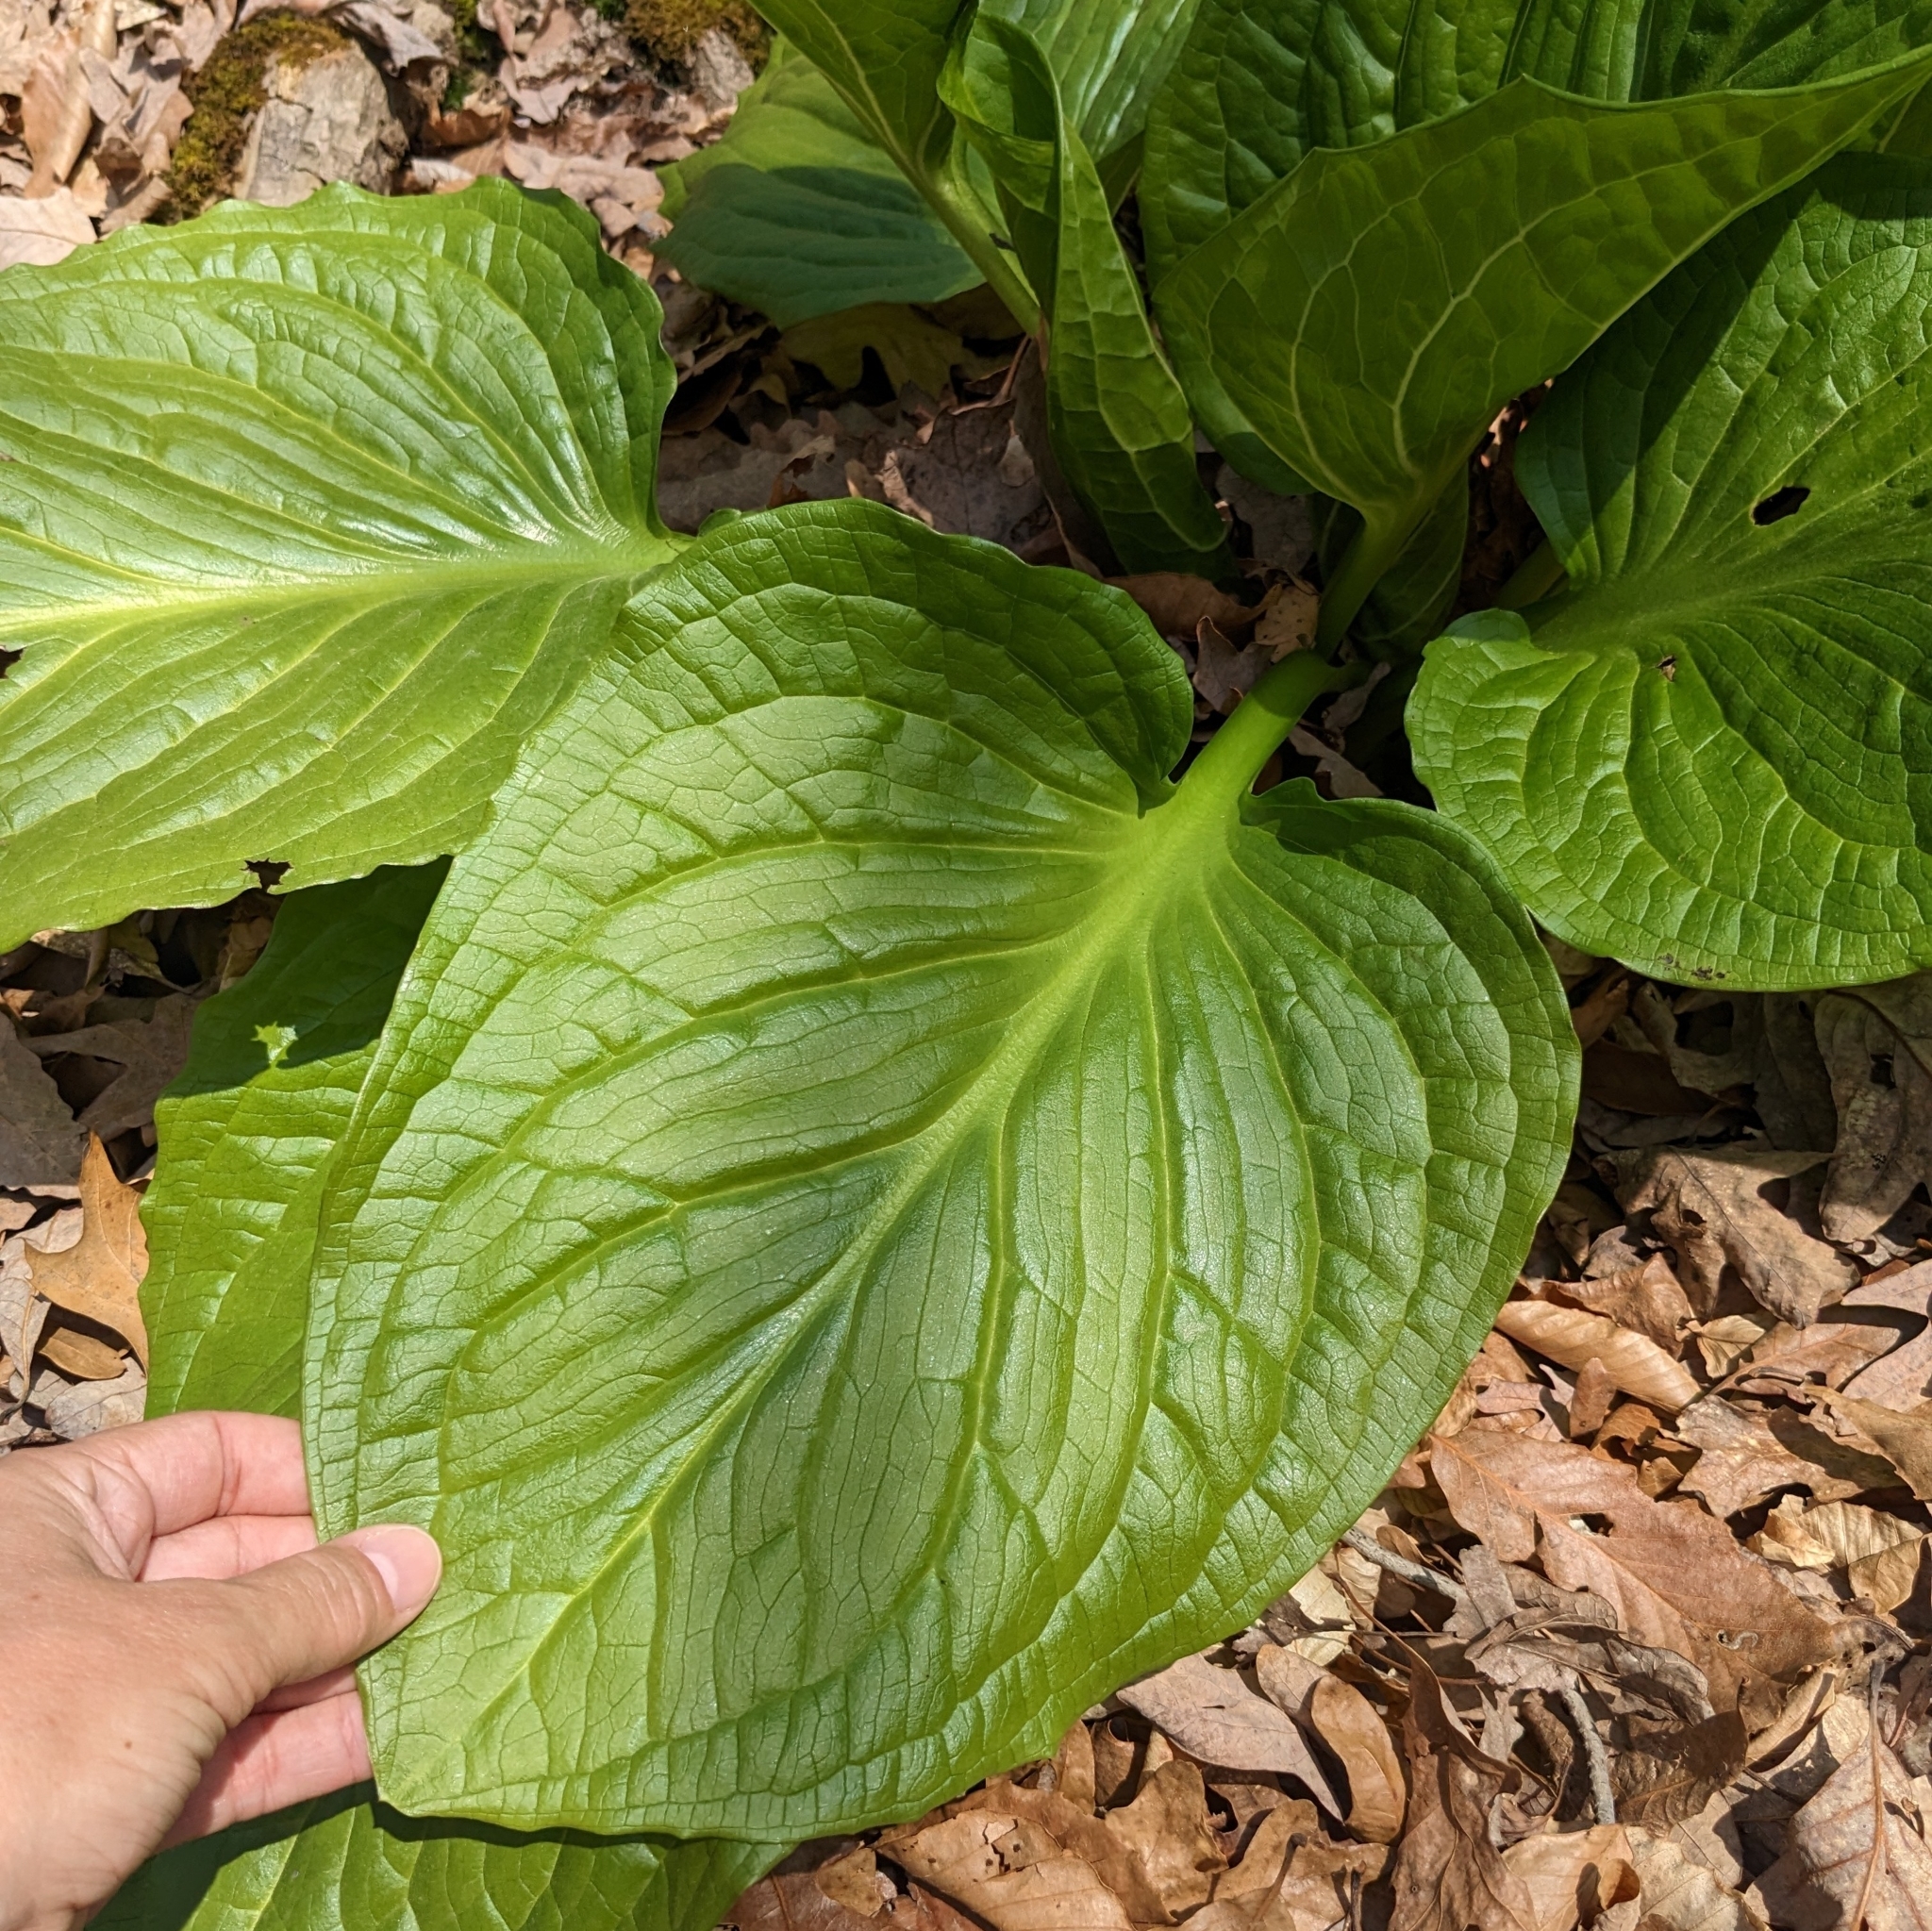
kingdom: Plantae
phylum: Tracheophyta
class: Liliopsida
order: Alismatales
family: Araceae
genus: Symplocarpus
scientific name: Symplocarpus foetidus
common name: Eastern skunk cabbage
